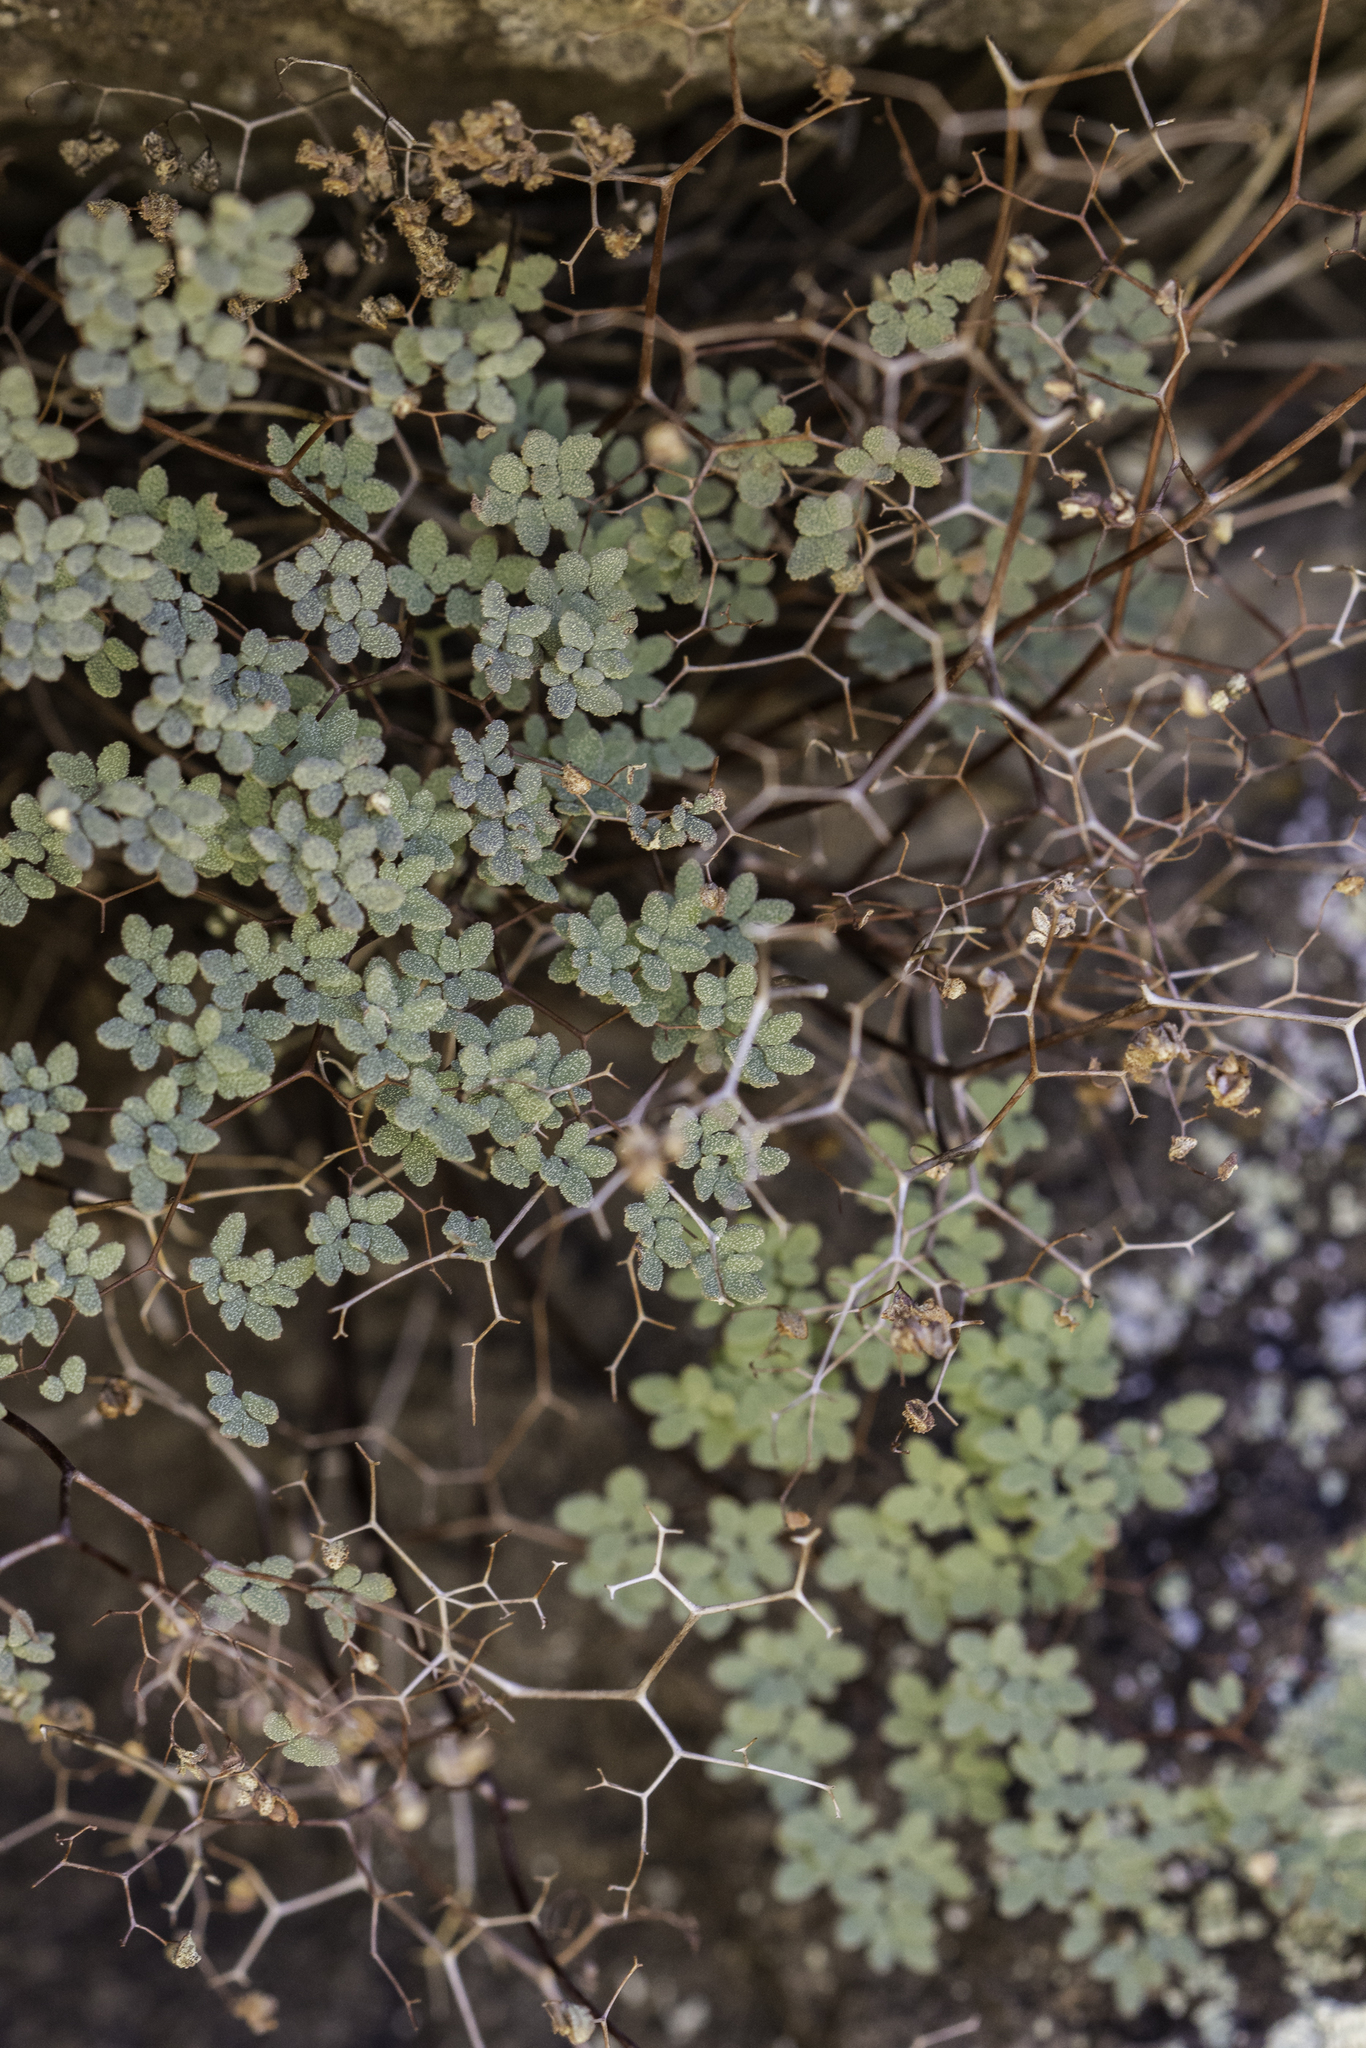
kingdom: Plantae
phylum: Tracheophyta
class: Polypodiopsida
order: Polypodiales
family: Pteridaceae
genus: Argyrochosma
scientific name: Argyrochosma fendleri
